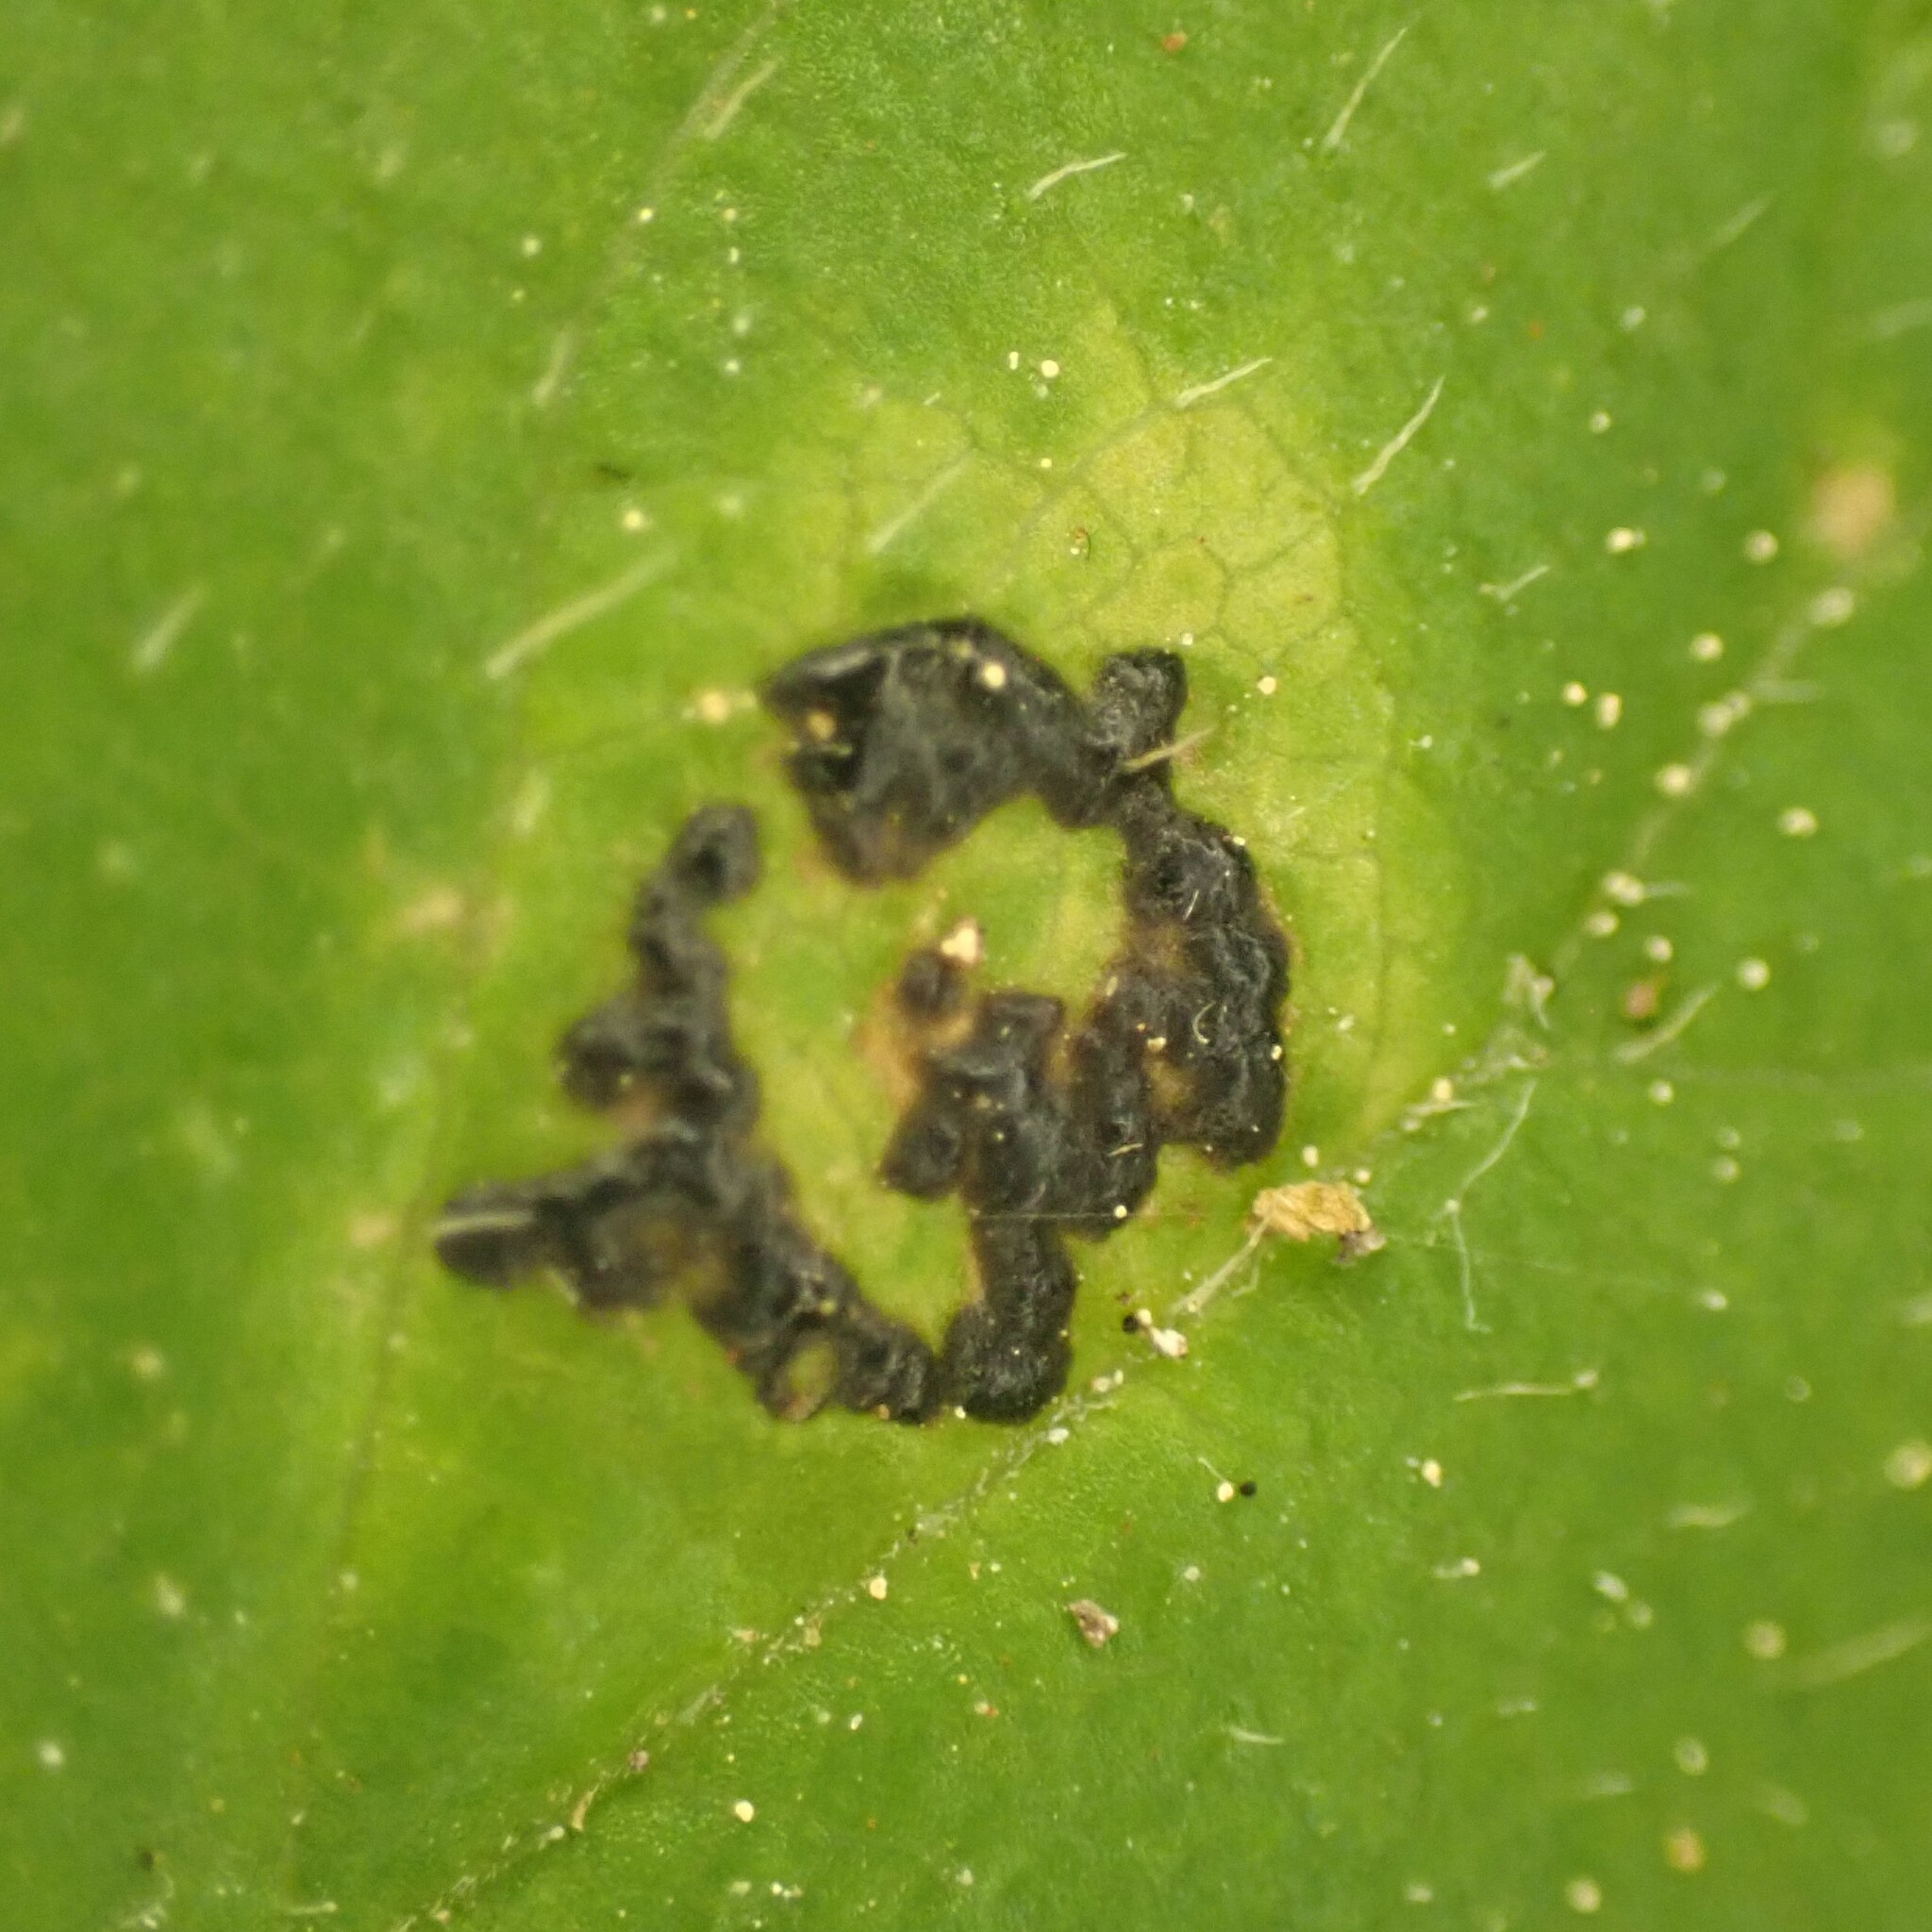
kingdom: Fungi
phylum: Ascomycota
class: Leotiomycetes
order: Rhytismatales
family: Rhytismataceae
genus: Rhytisma
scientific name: Rhytisma
